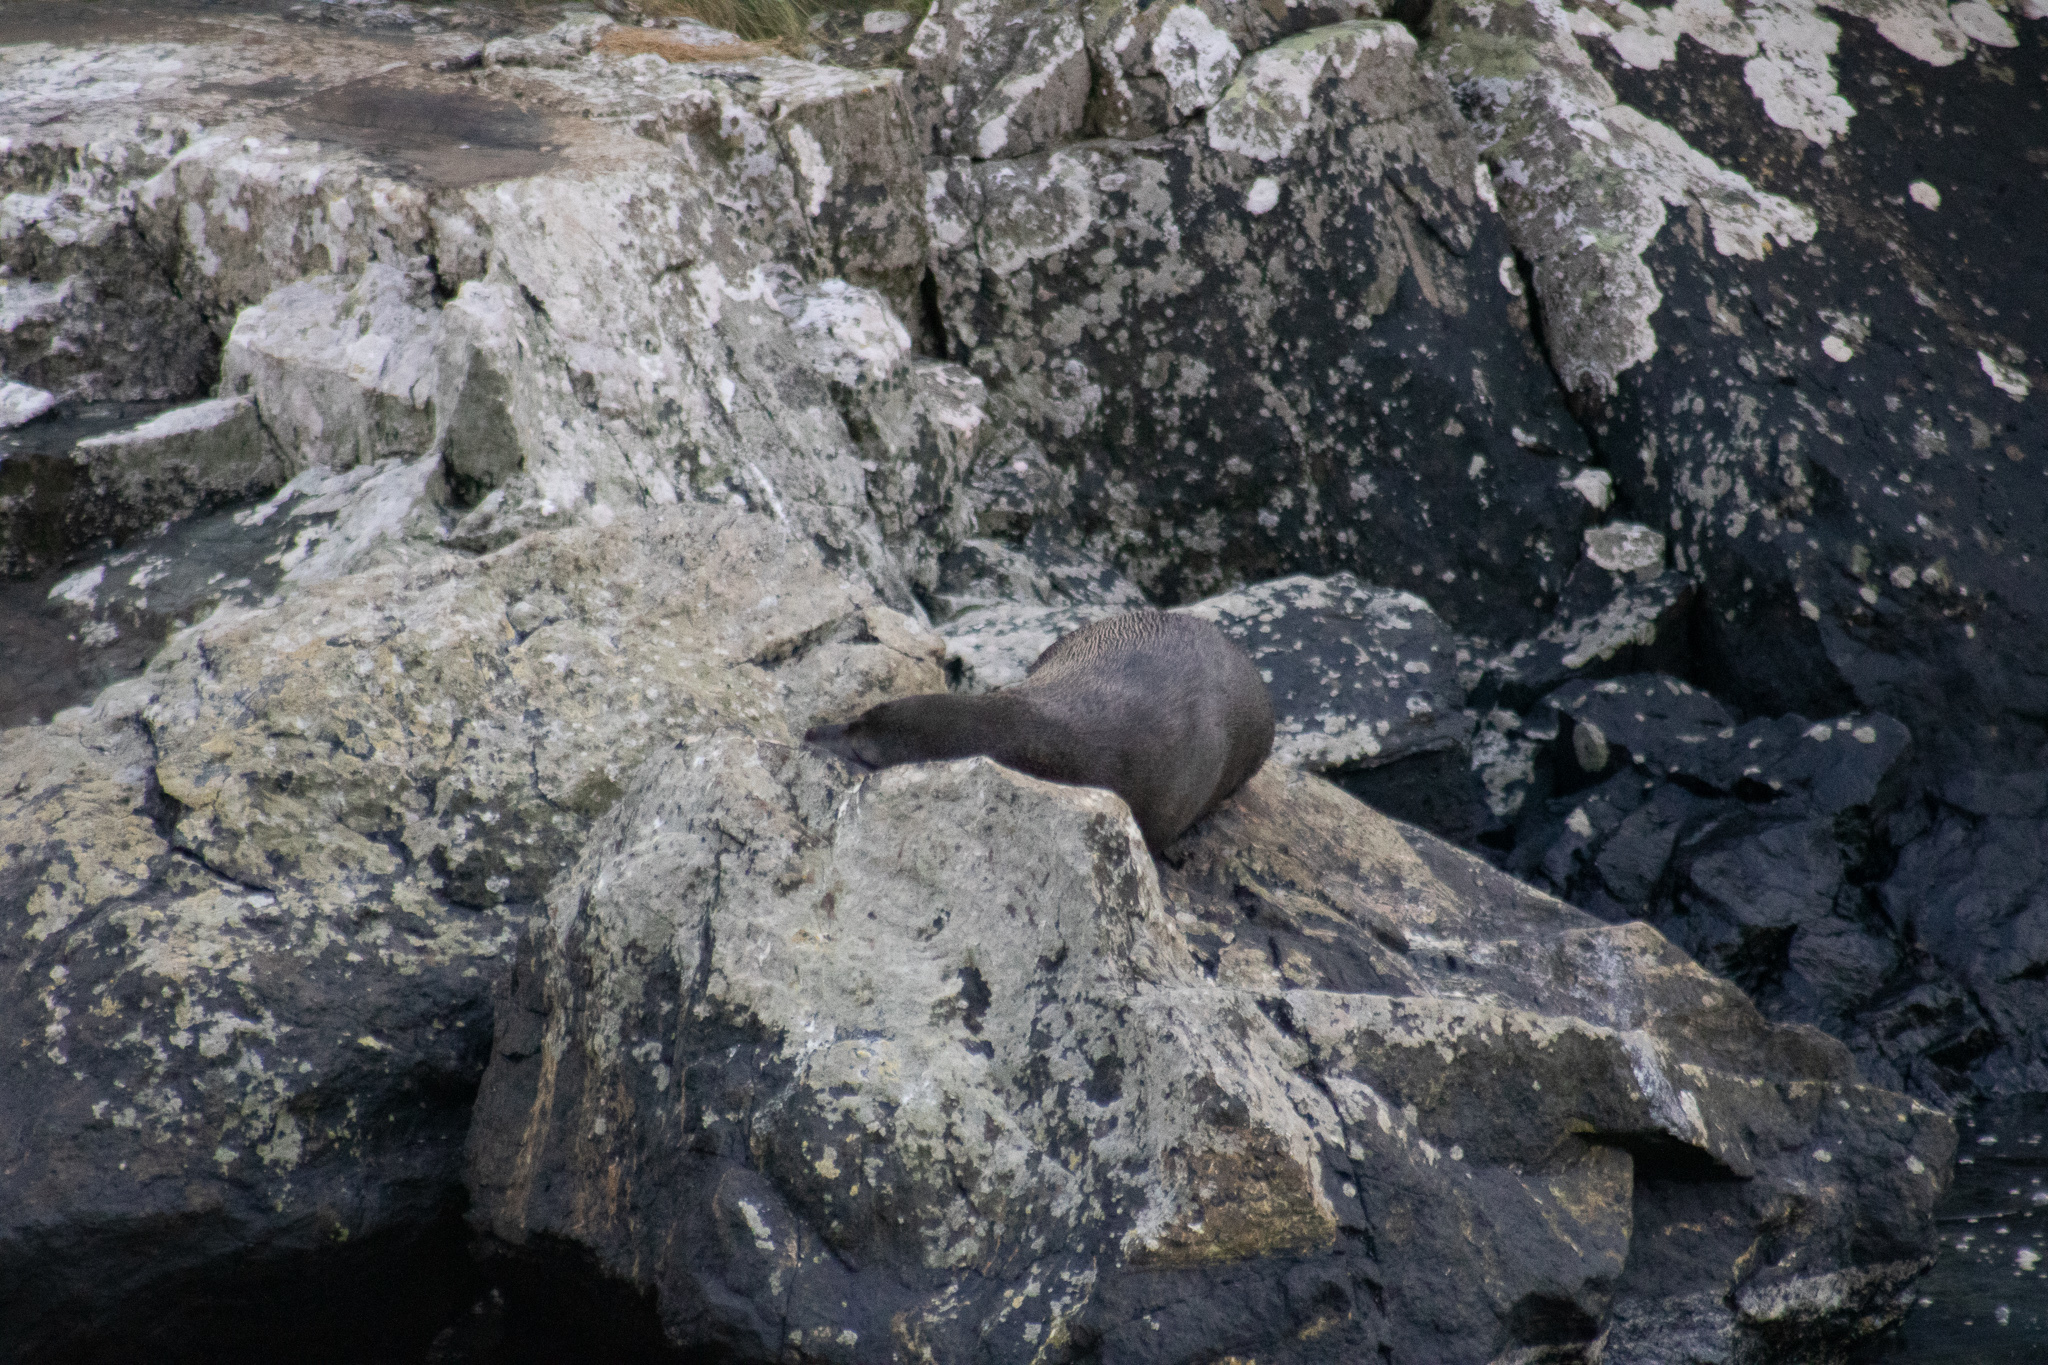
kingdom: Animalia
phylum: Chordata
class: Mammalia
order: Carnivora
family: Otariidae
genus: Arctocephalus
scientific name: Arctocephalus forsteri
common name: New zealand fur seal
